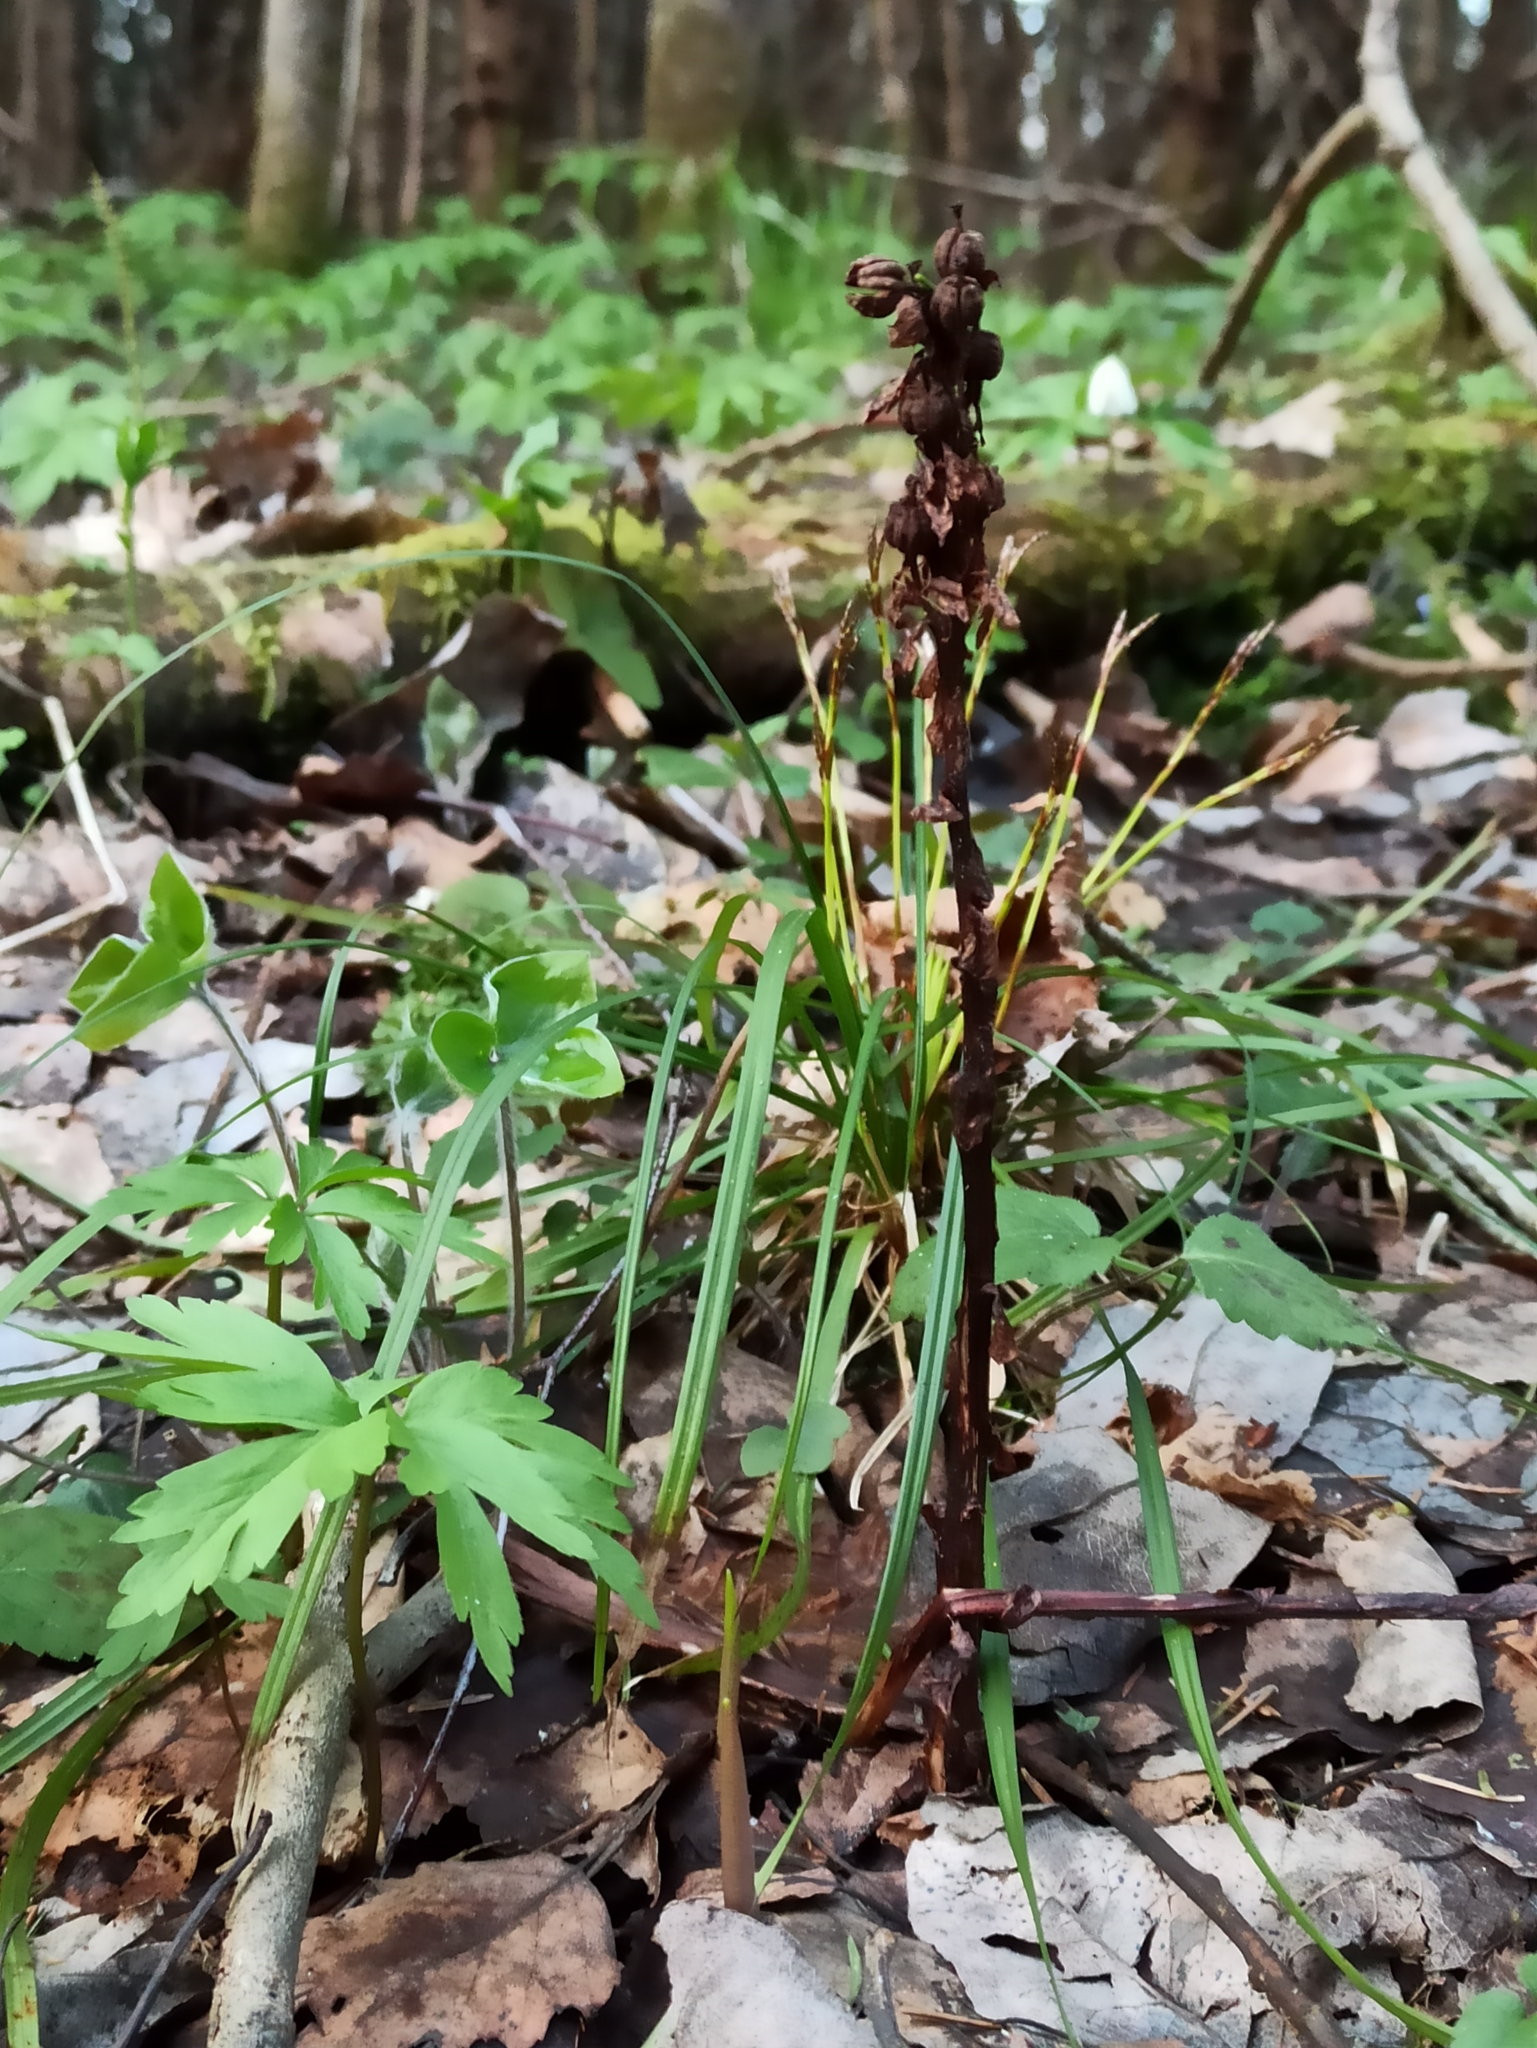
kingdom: Plantae
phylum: Tracheophyta
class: Magnoliopsida
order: Ericales
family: Ericaceae
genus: Hypopitys
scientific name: Hypopitys monotropa
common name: Yellow bird's-nest
